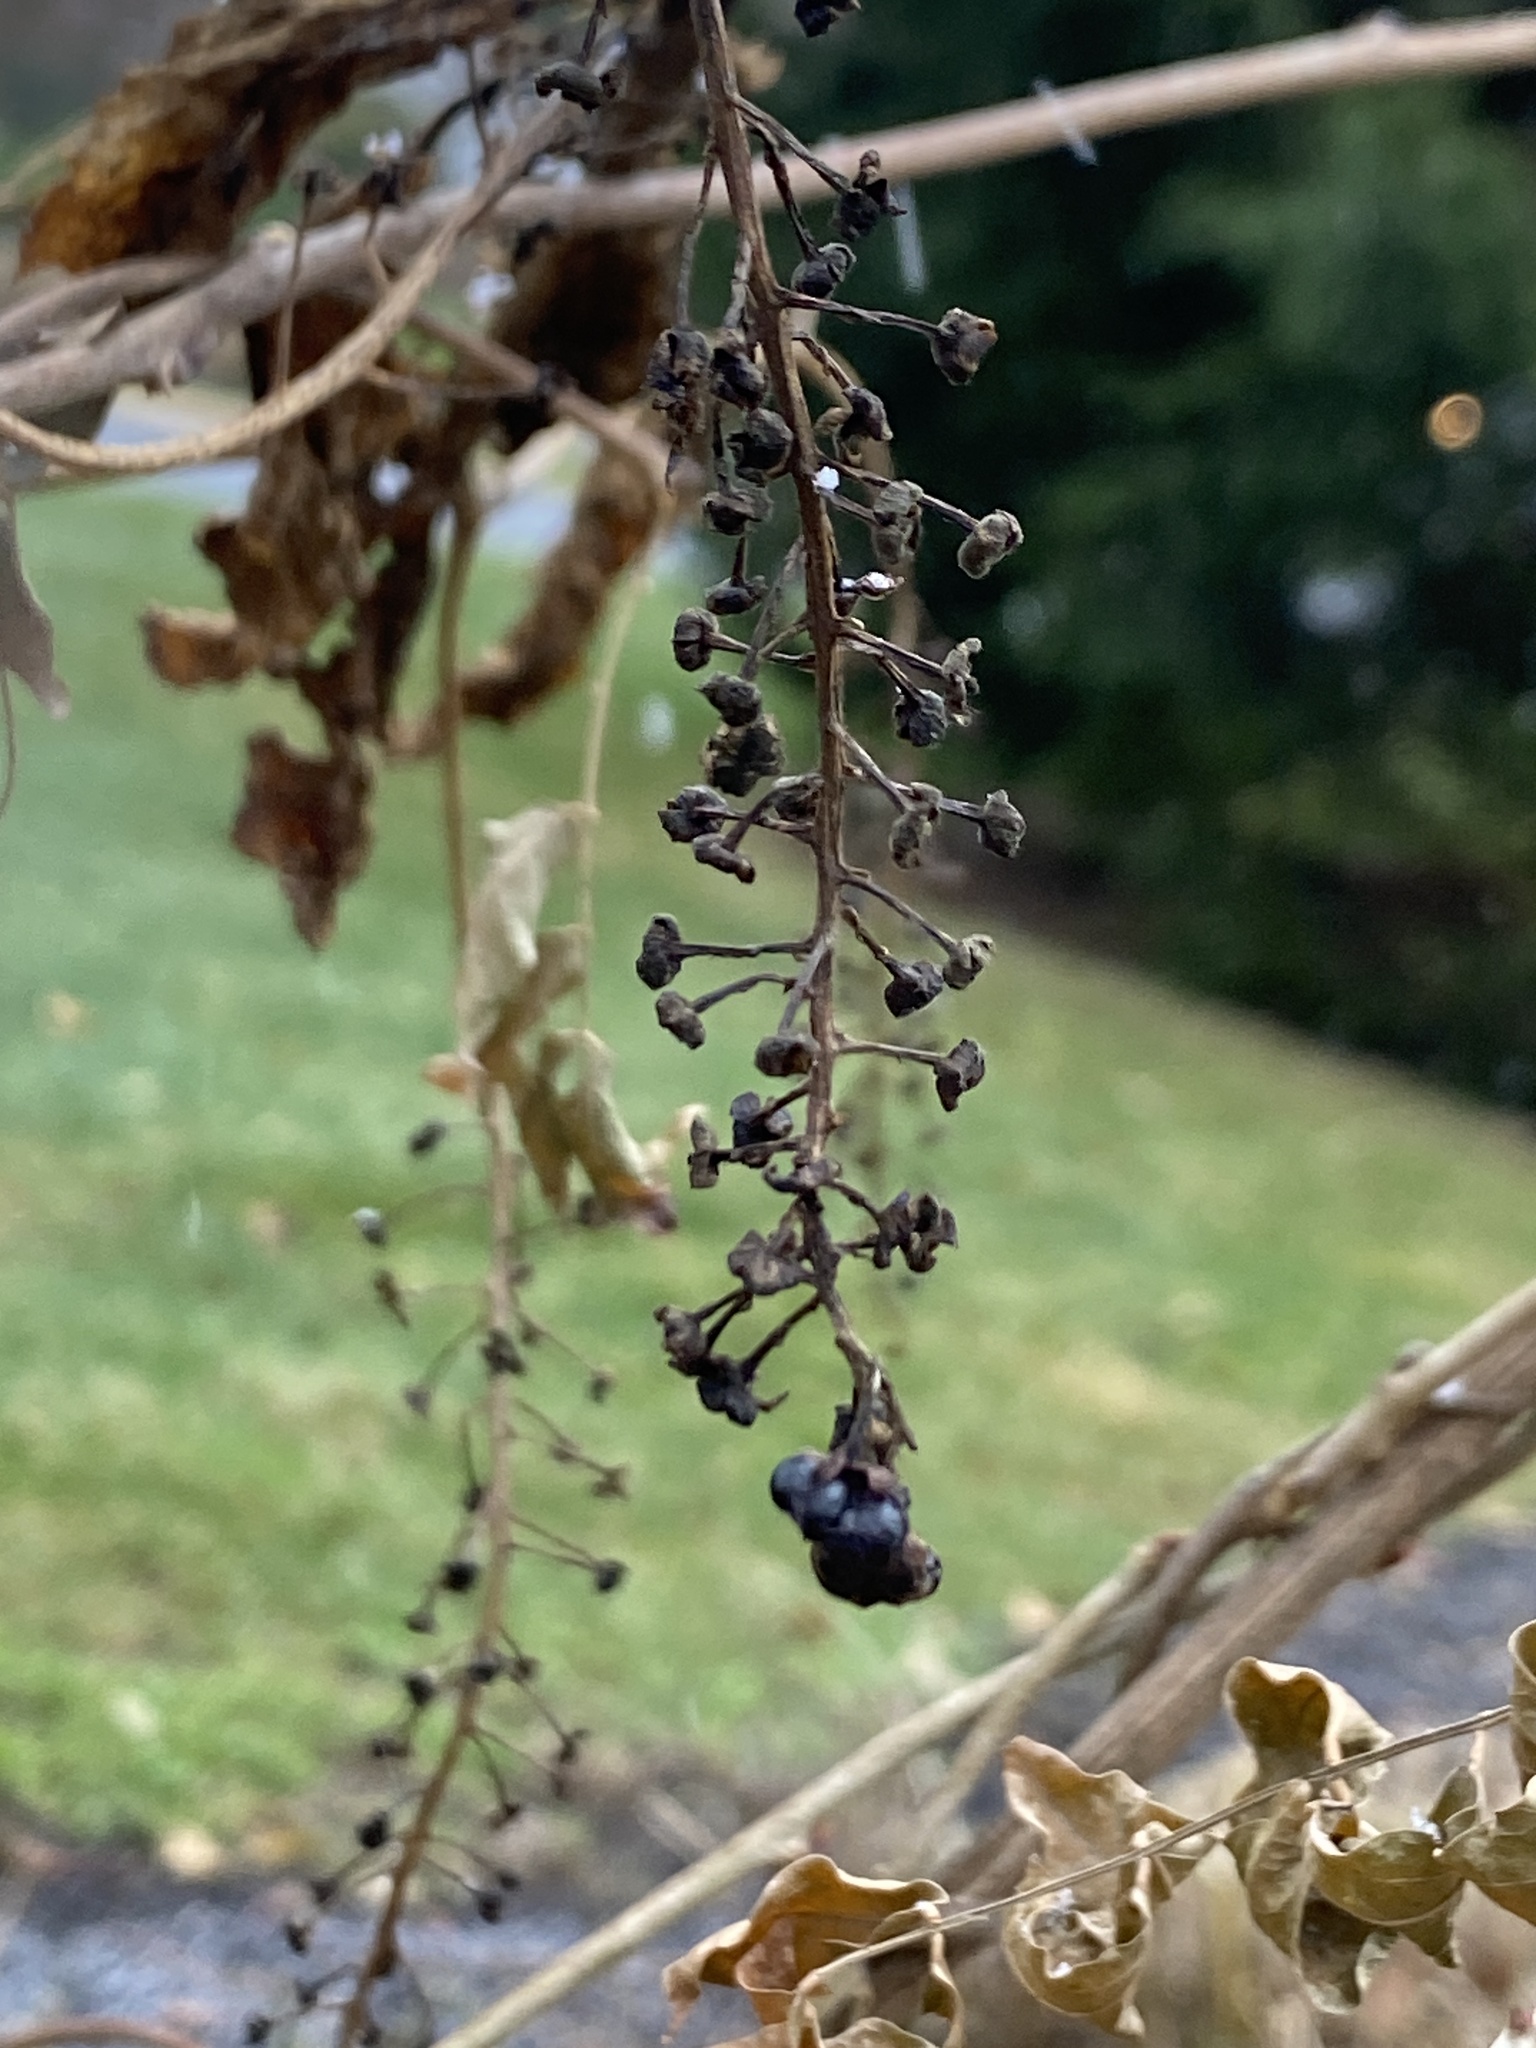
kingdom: Plantae
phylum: Tracheophyta
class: Magnoliopsida
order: Caryophyllales
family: Phytolaccaceae
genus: Phytolacca
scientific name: Phytolacca americana
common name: American pokeweed
